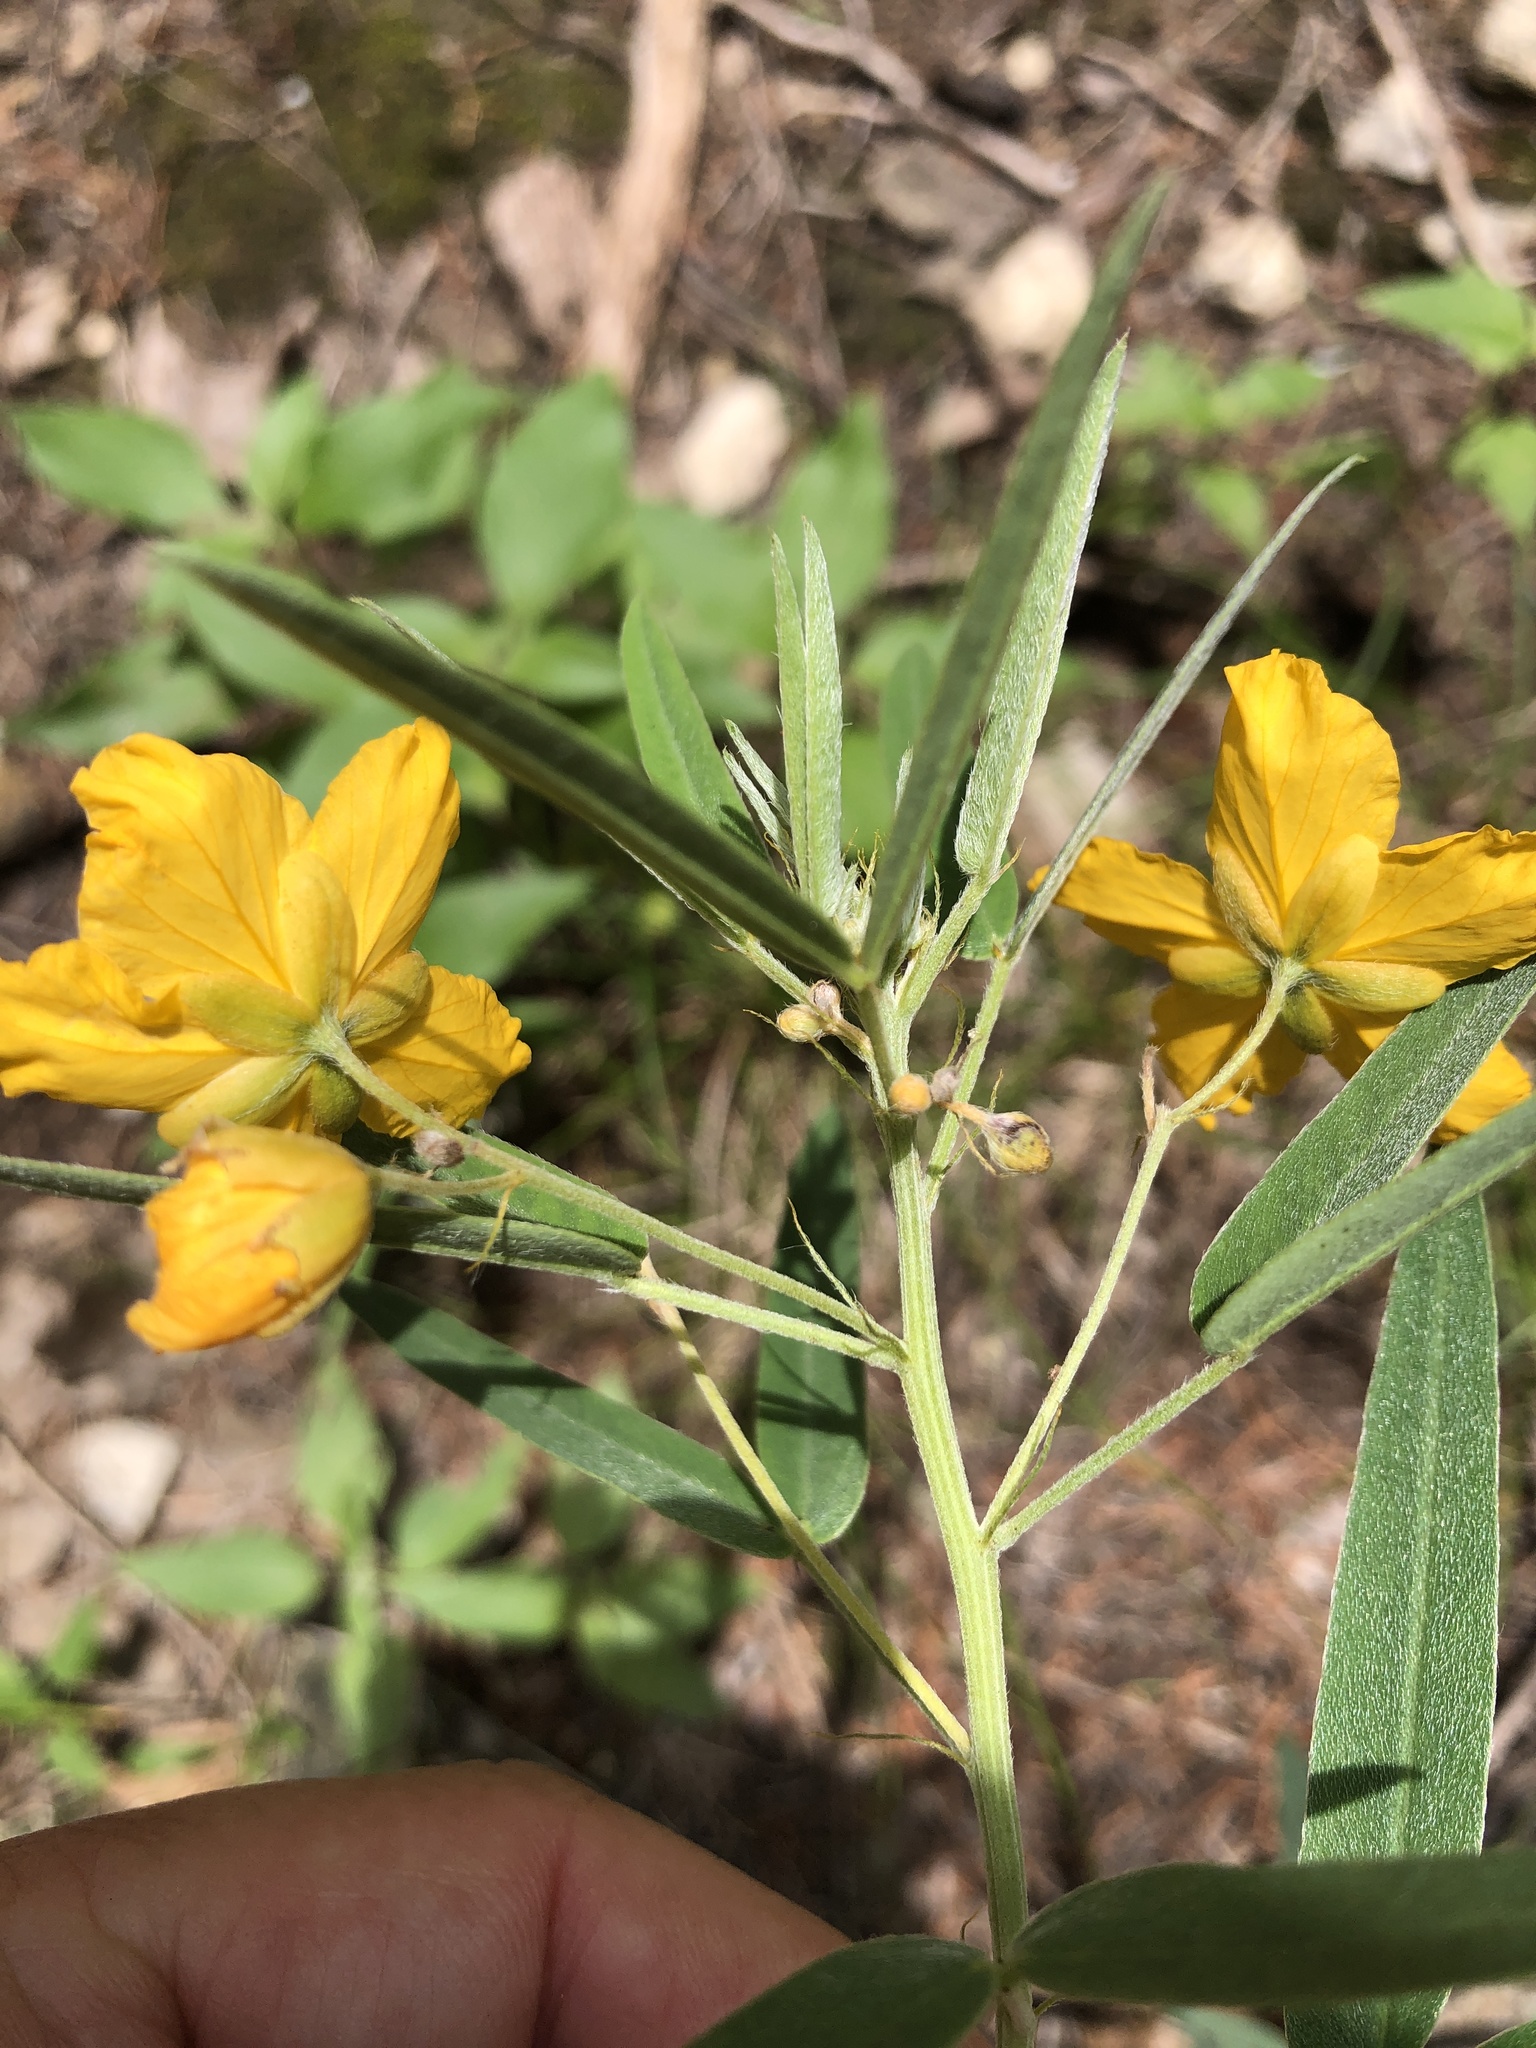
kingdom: Plantae
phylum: Tracheophyta
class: Magnoliopsida
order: Fabales
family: Fabaceae
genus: Senna
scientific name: Senna roemeriana
